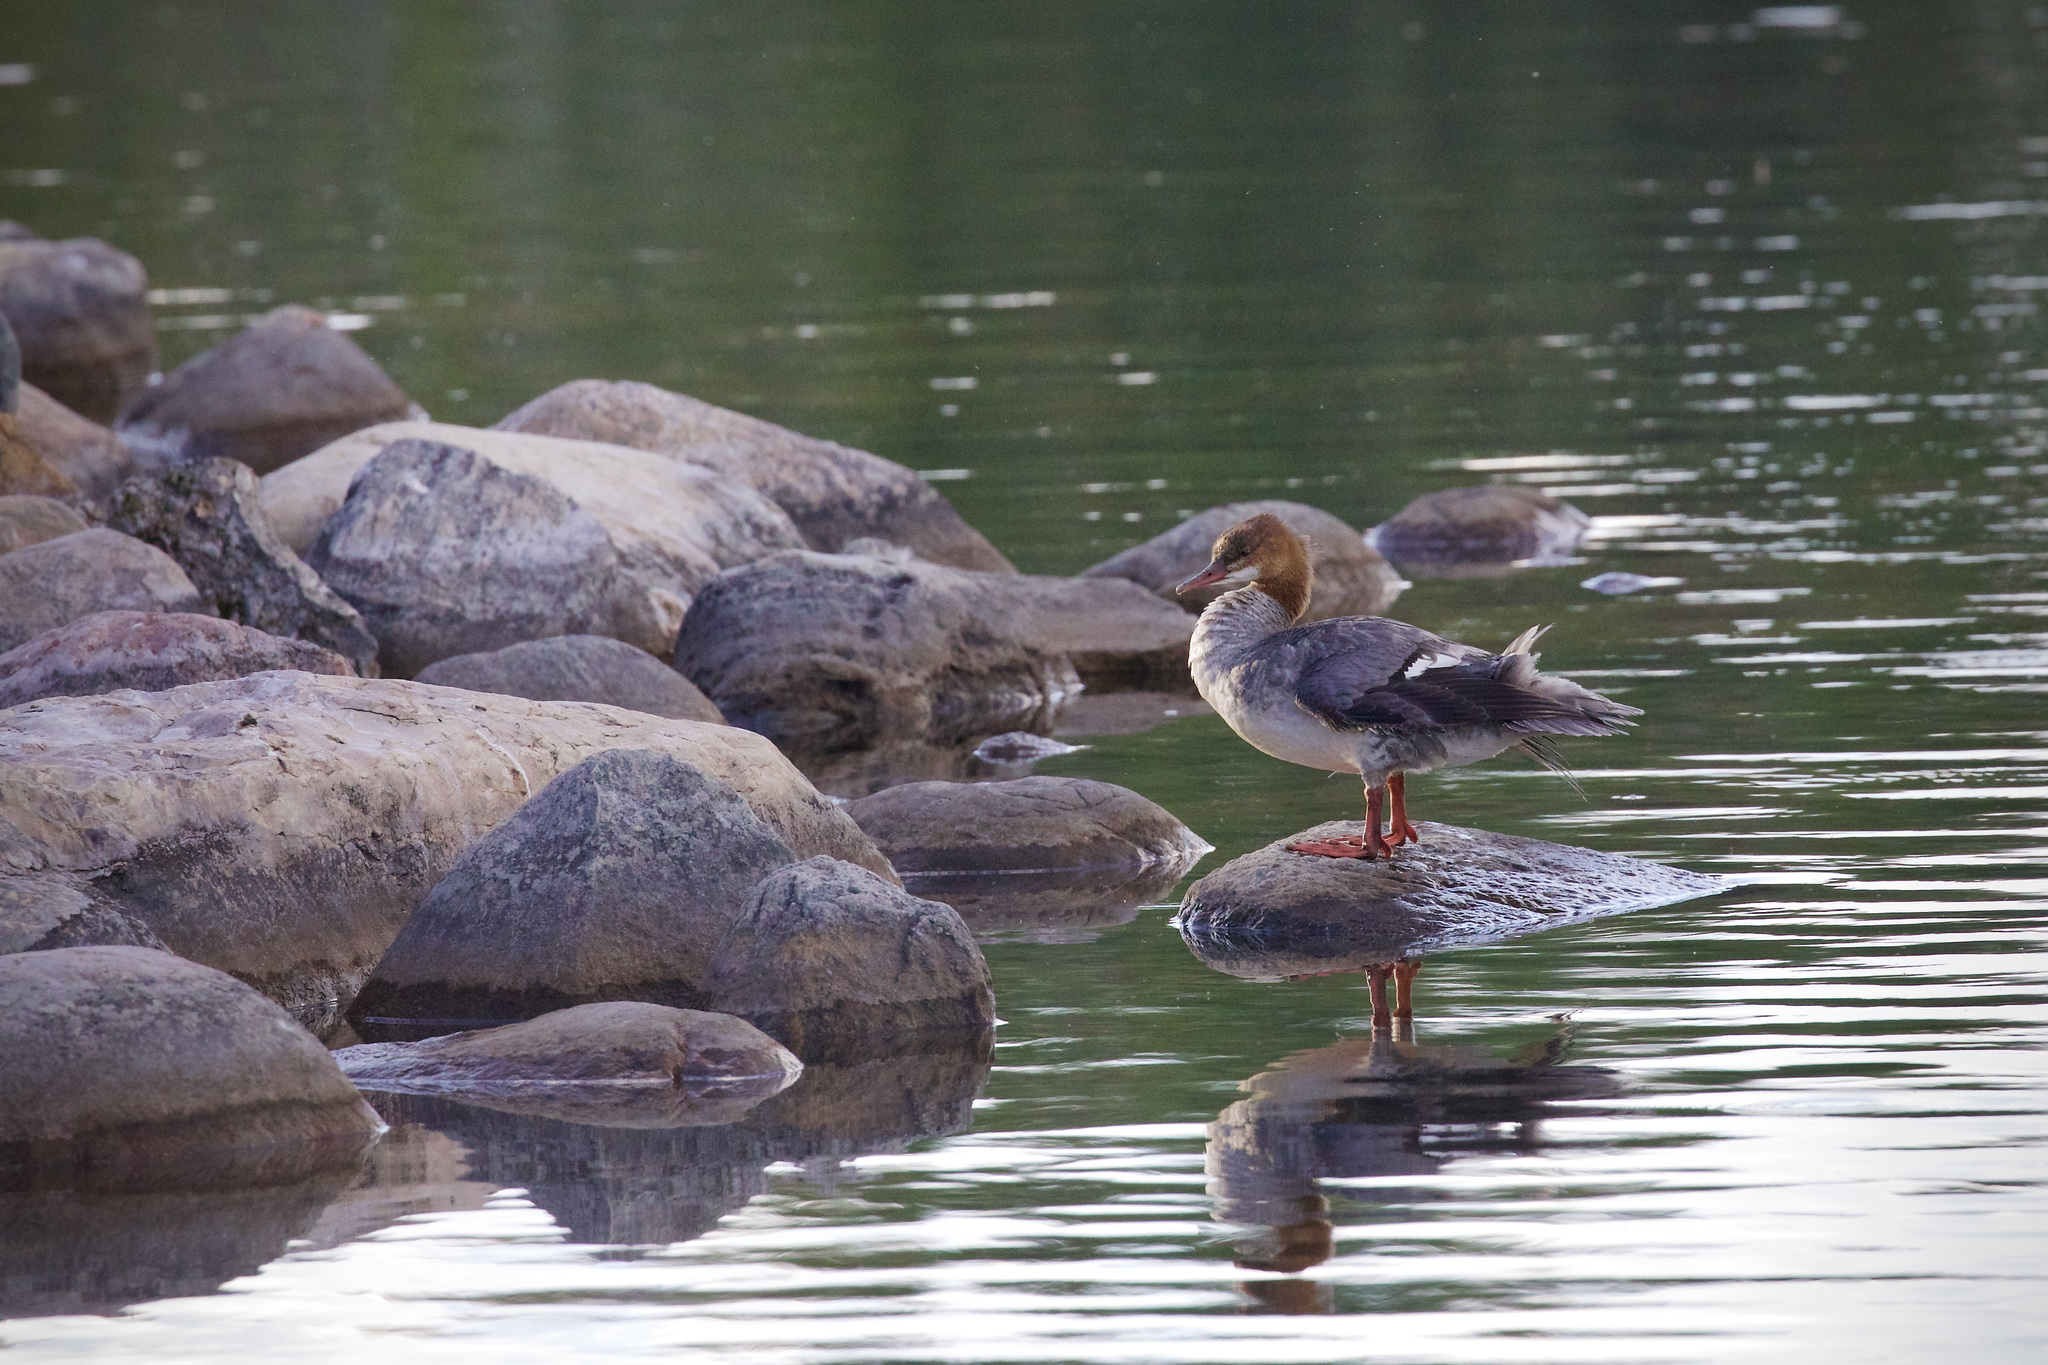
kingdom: Animalia
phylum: Chordata
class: Aves
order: Anseriformes
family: Anatidae
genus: Mergus
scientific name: Mergus merganser
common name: Common merganser
